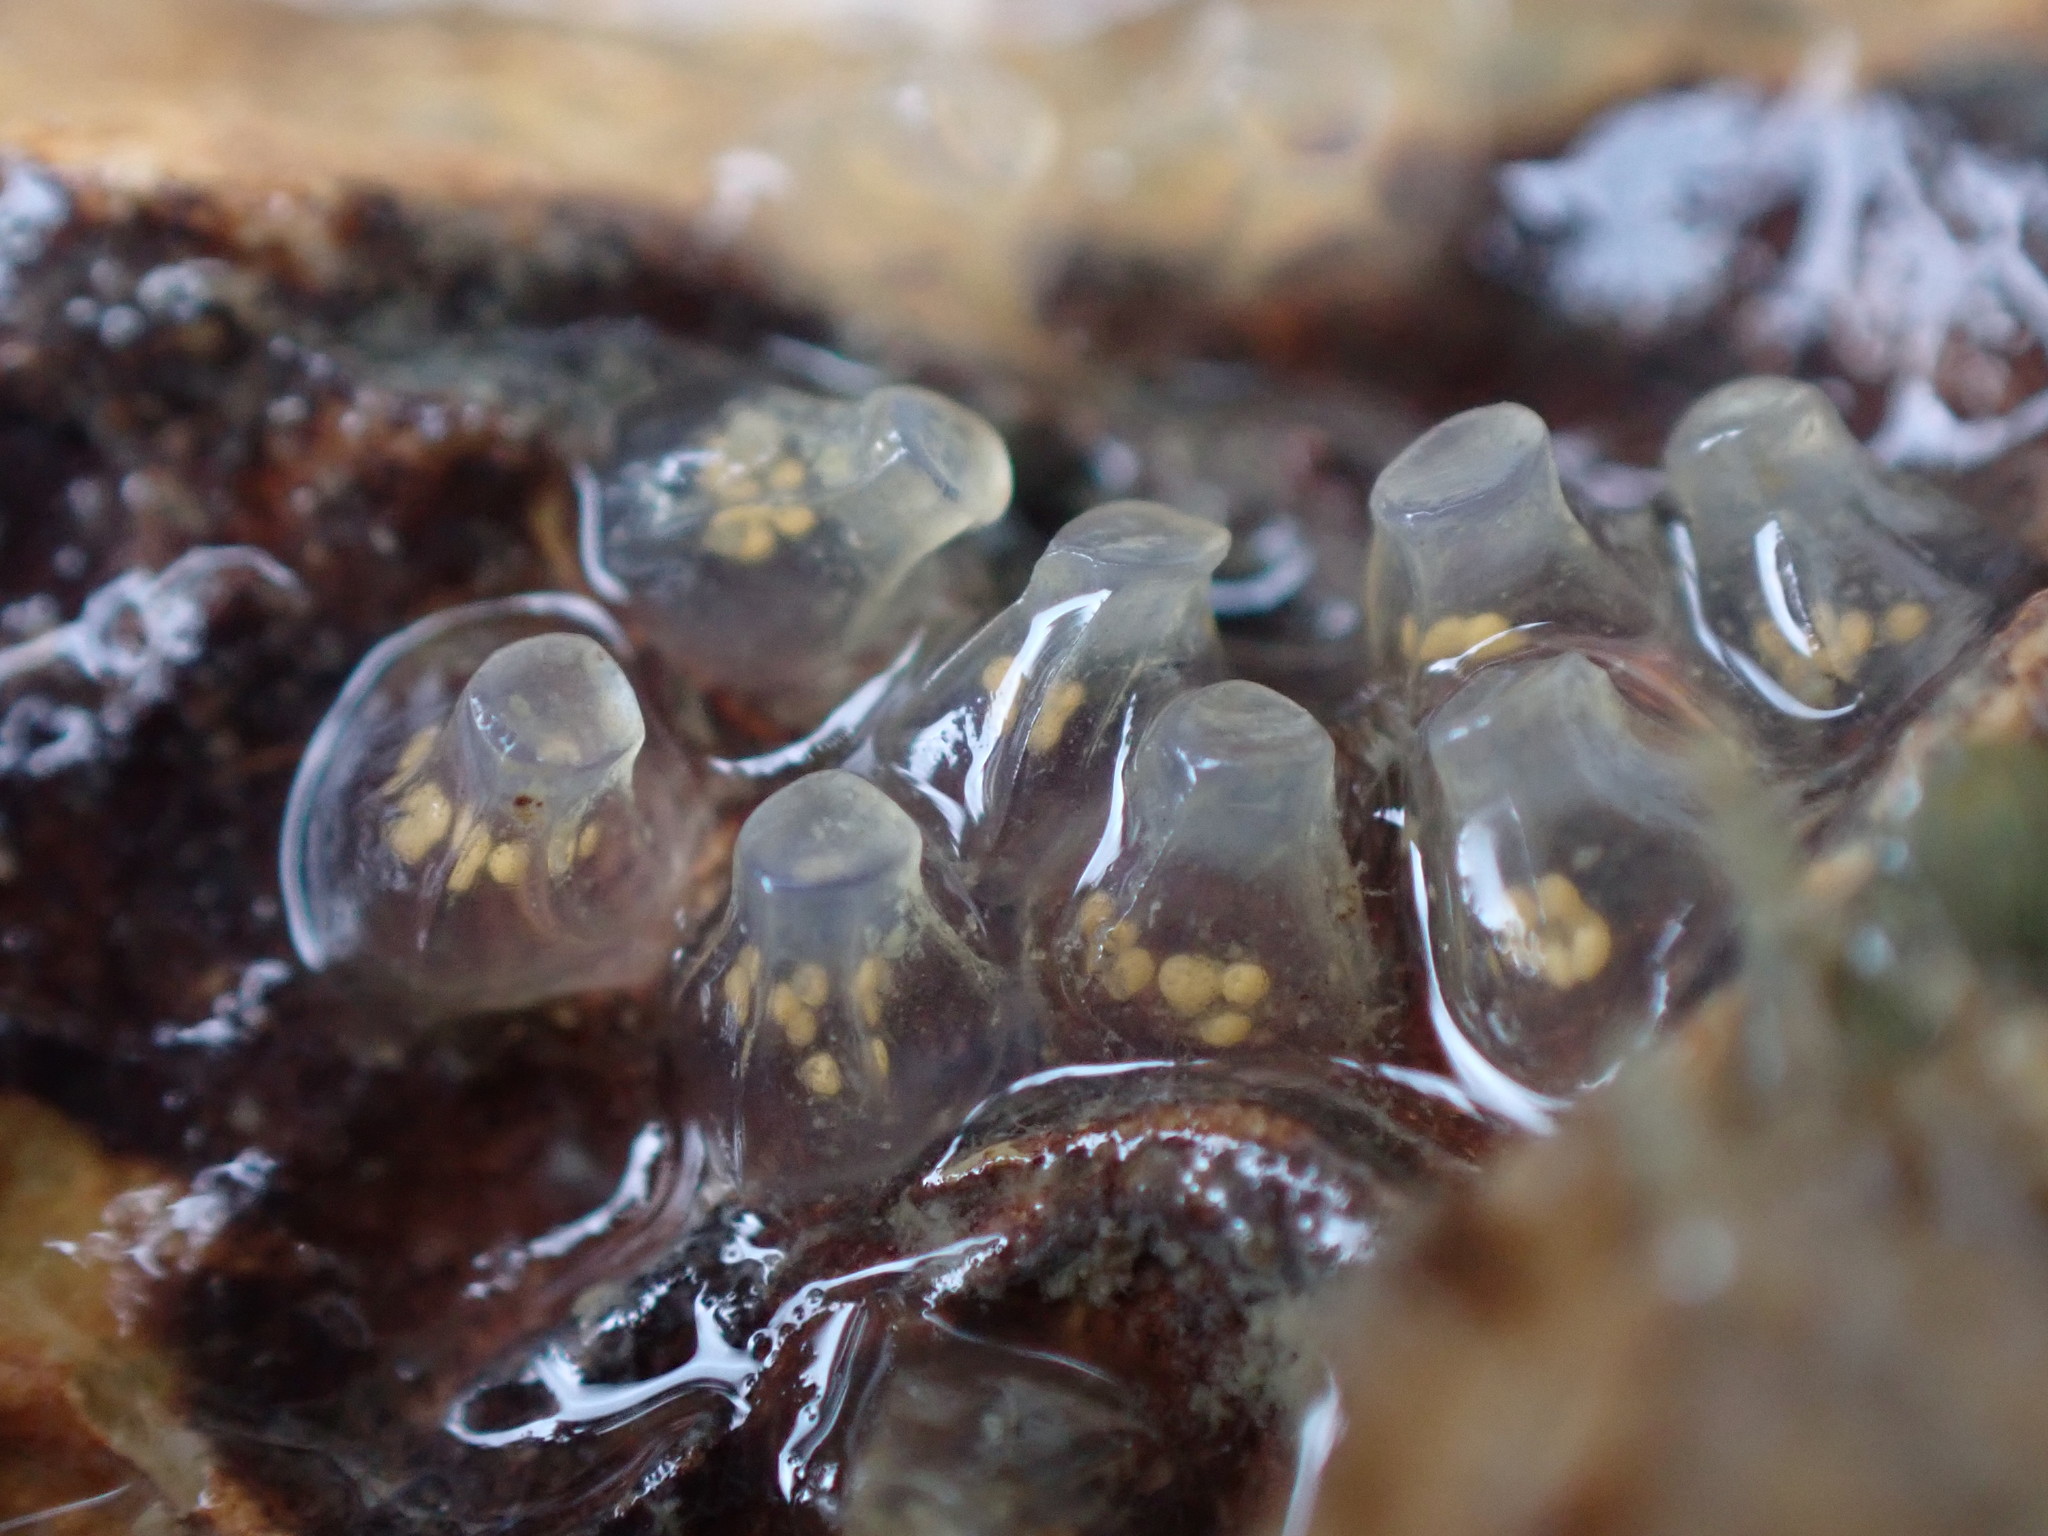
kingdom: Animalia
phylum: Mollusca
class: Gastropoda
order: Neogastropoda
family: Cominellidae
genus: Cominella
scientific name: Cominella glandiformis
